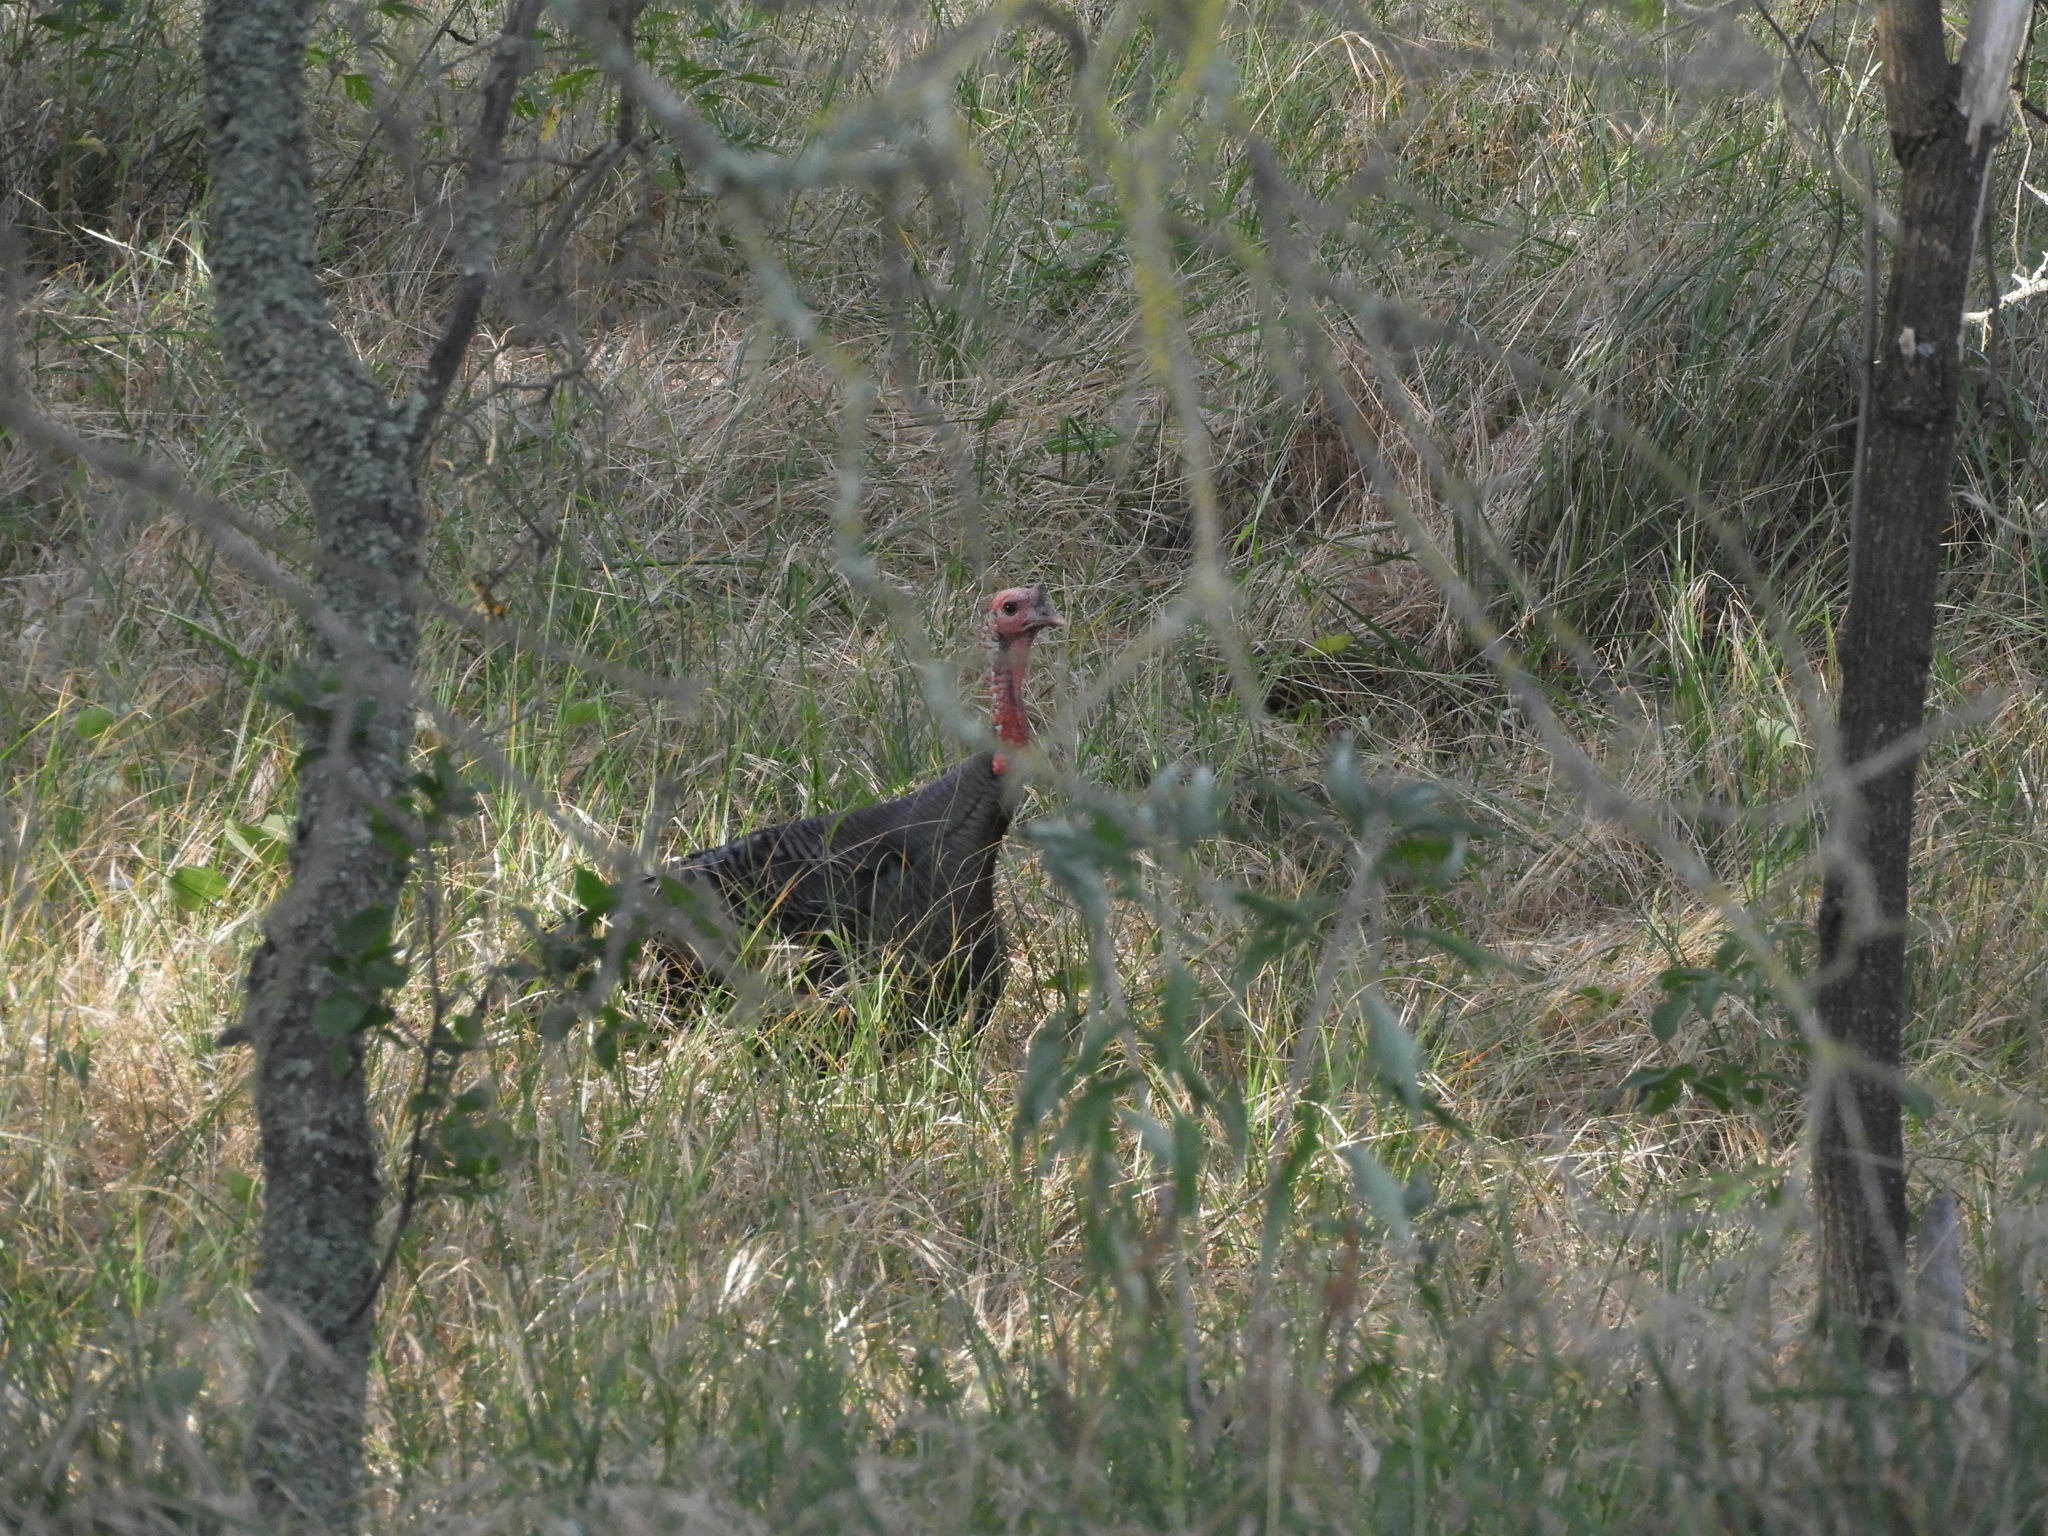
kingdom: Animalia
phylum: Chordata
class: Aves
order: Galliformes
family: Phasianidae
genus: Meleagris
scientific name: Meleagris gallopavo
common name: Wild turkey
